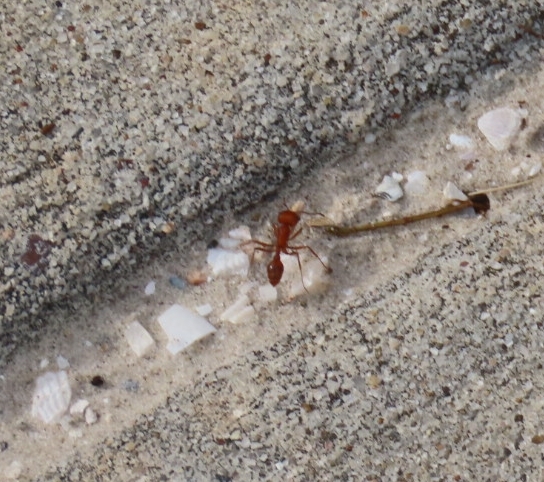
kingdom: Animalia
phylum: Arthropoda
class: Insecta
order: Hymenoptera
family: Formicidae
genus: Pogonomyrmex
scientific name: Pogonomyrmex comanche
